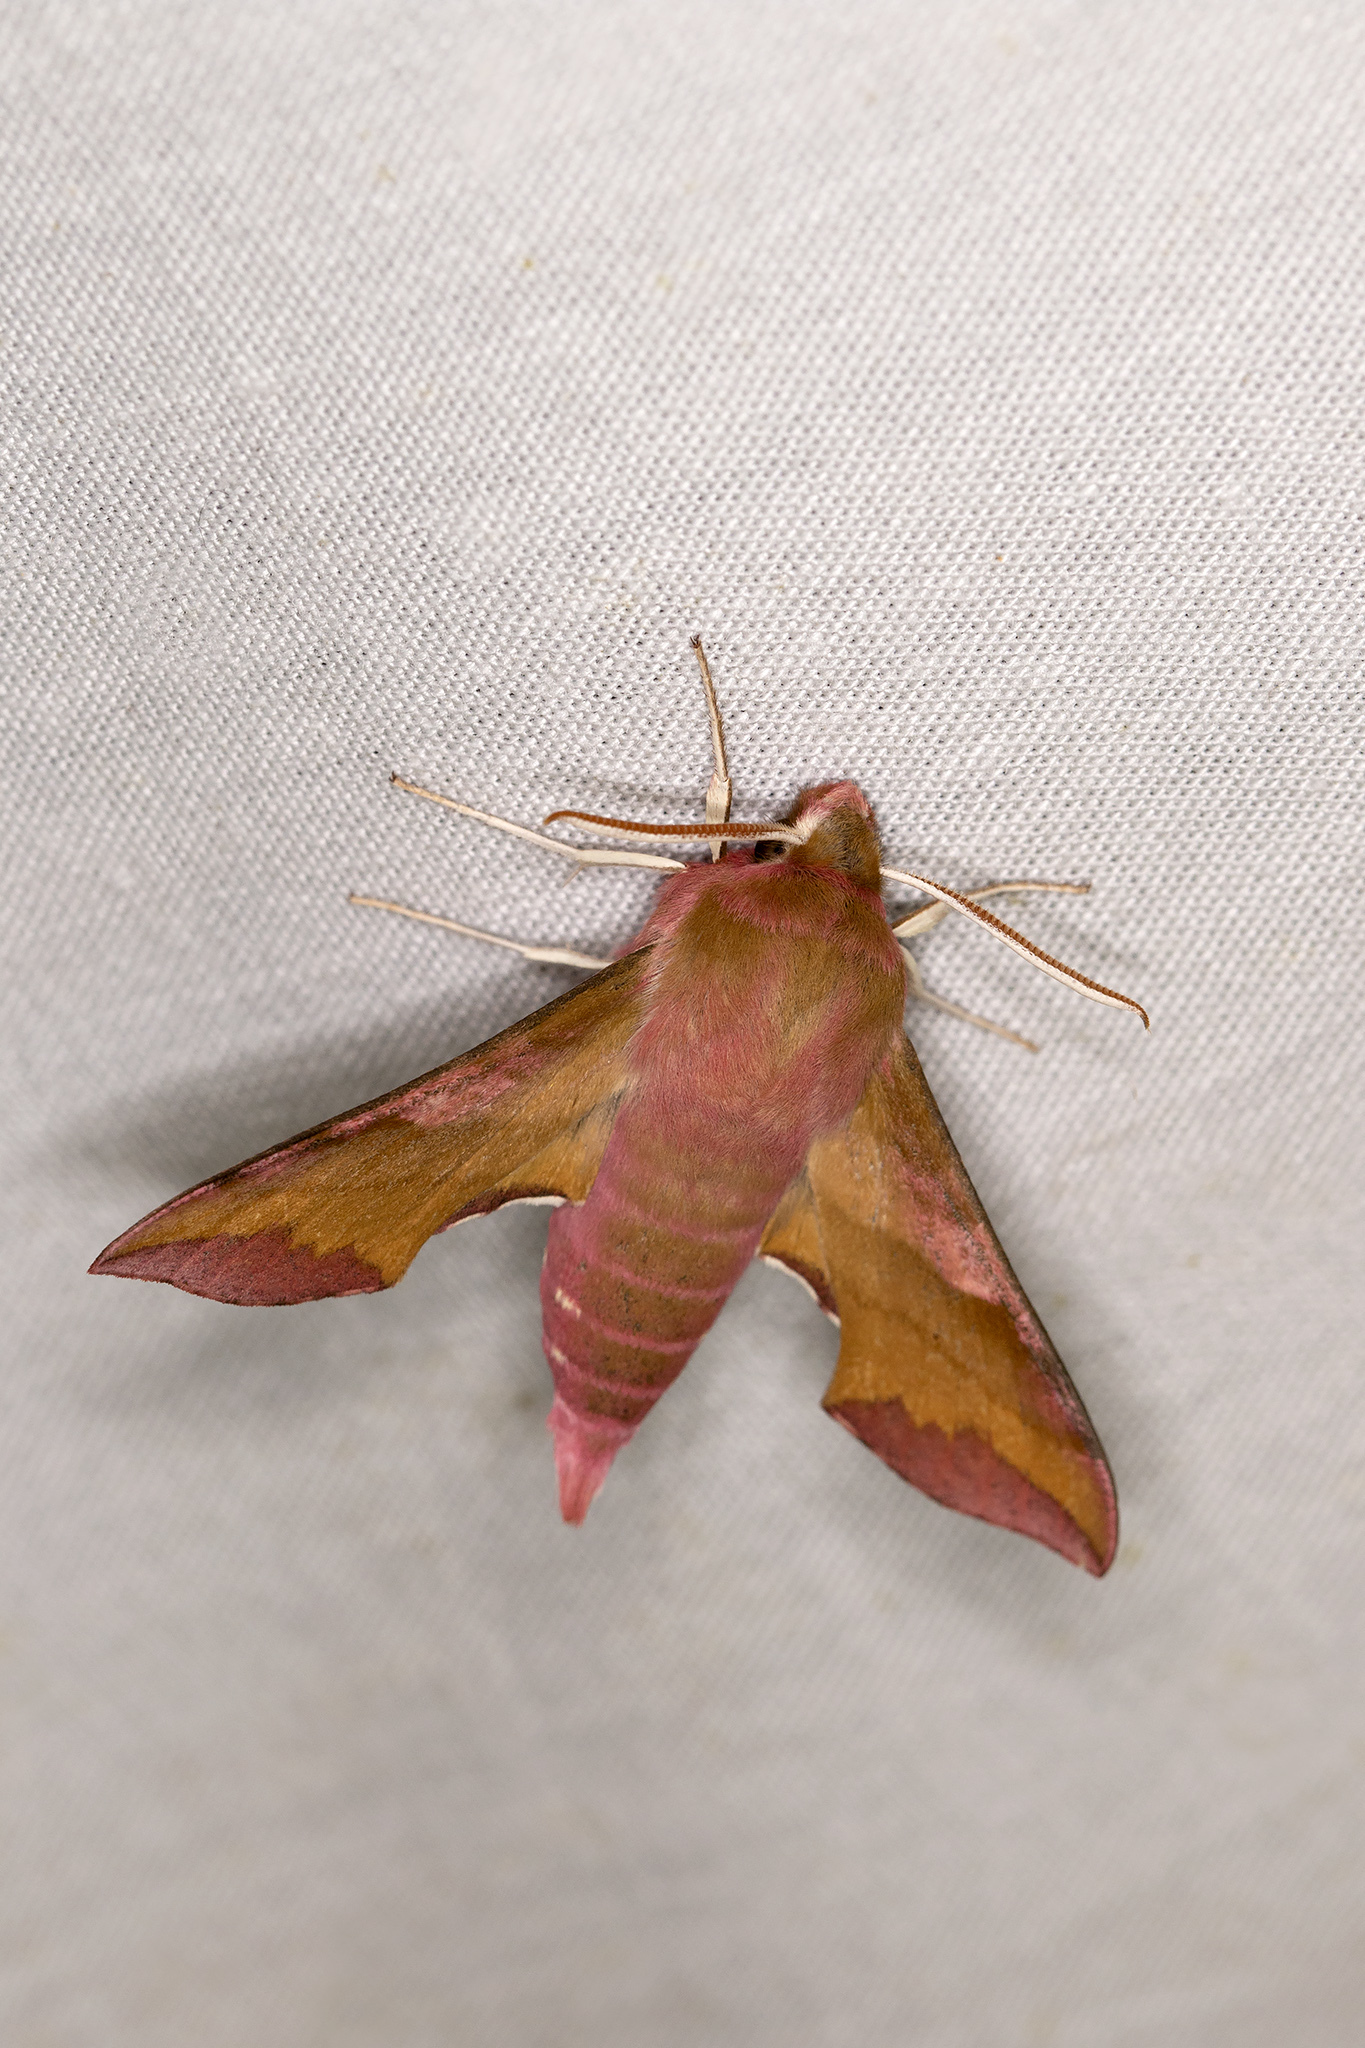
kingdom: Animalia
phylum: Arthropoda
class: Insecta
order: Lepidoptera
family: Sphingidae
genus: Deilephila
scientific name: Deilephila porcellus
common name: Small elephant hawk-moth
